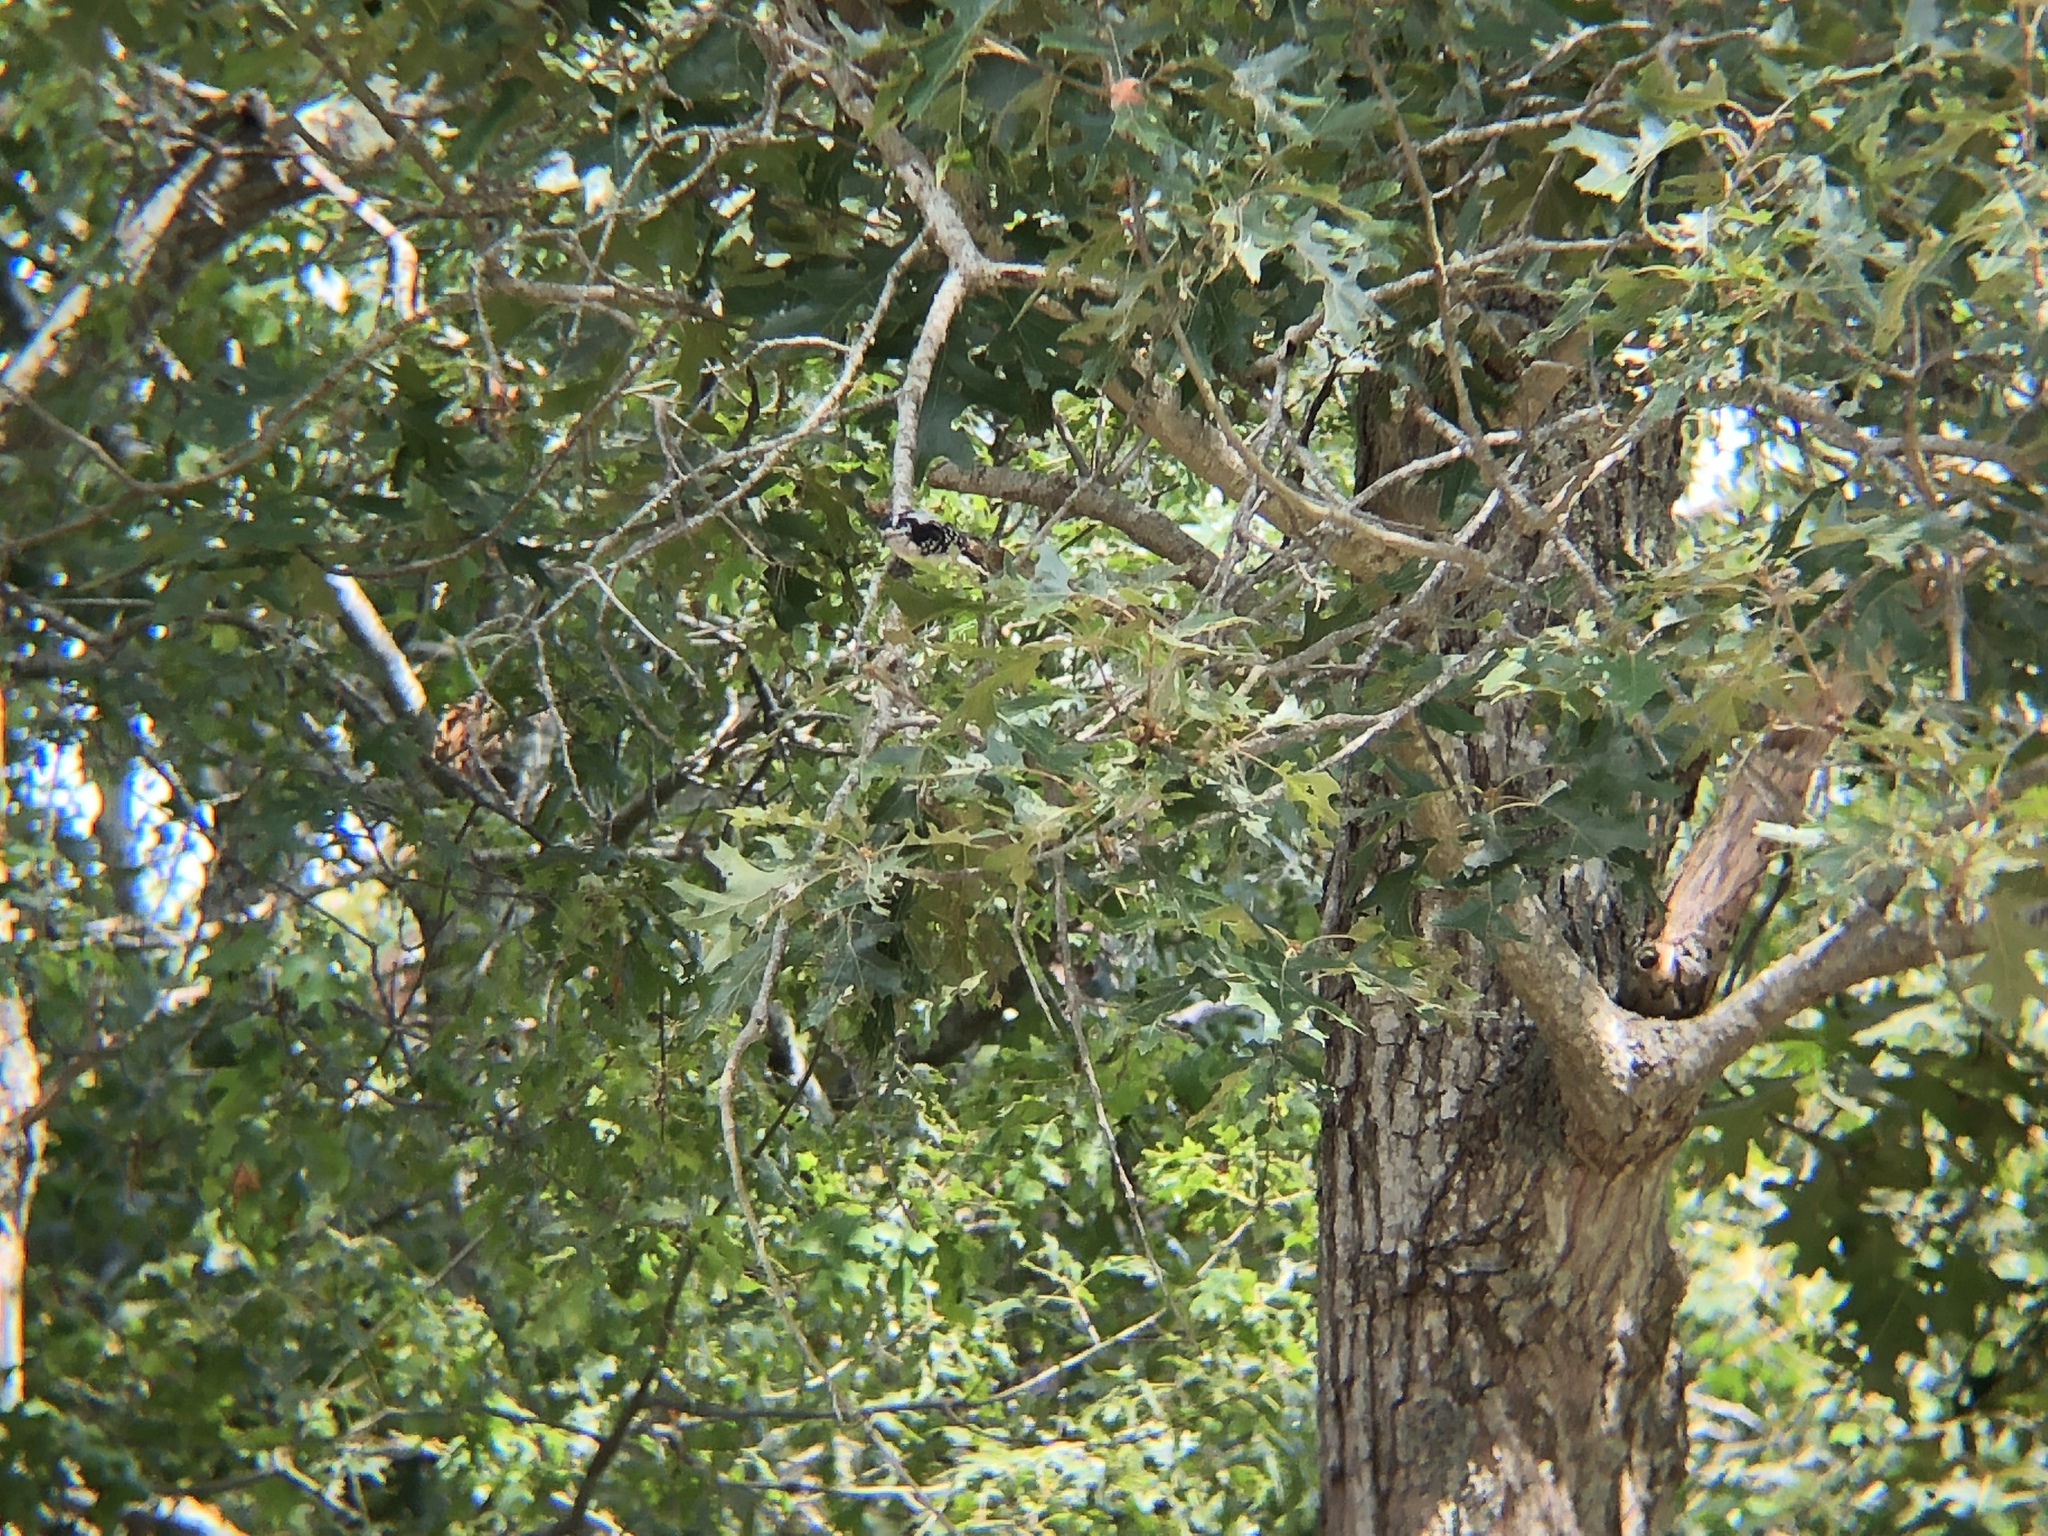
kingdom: Animalia
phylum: Chordata
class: Aves
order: Piciformes
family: Picidae
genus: Dryobates
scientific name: Dryobates pubescens
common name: Downy woodpecker
